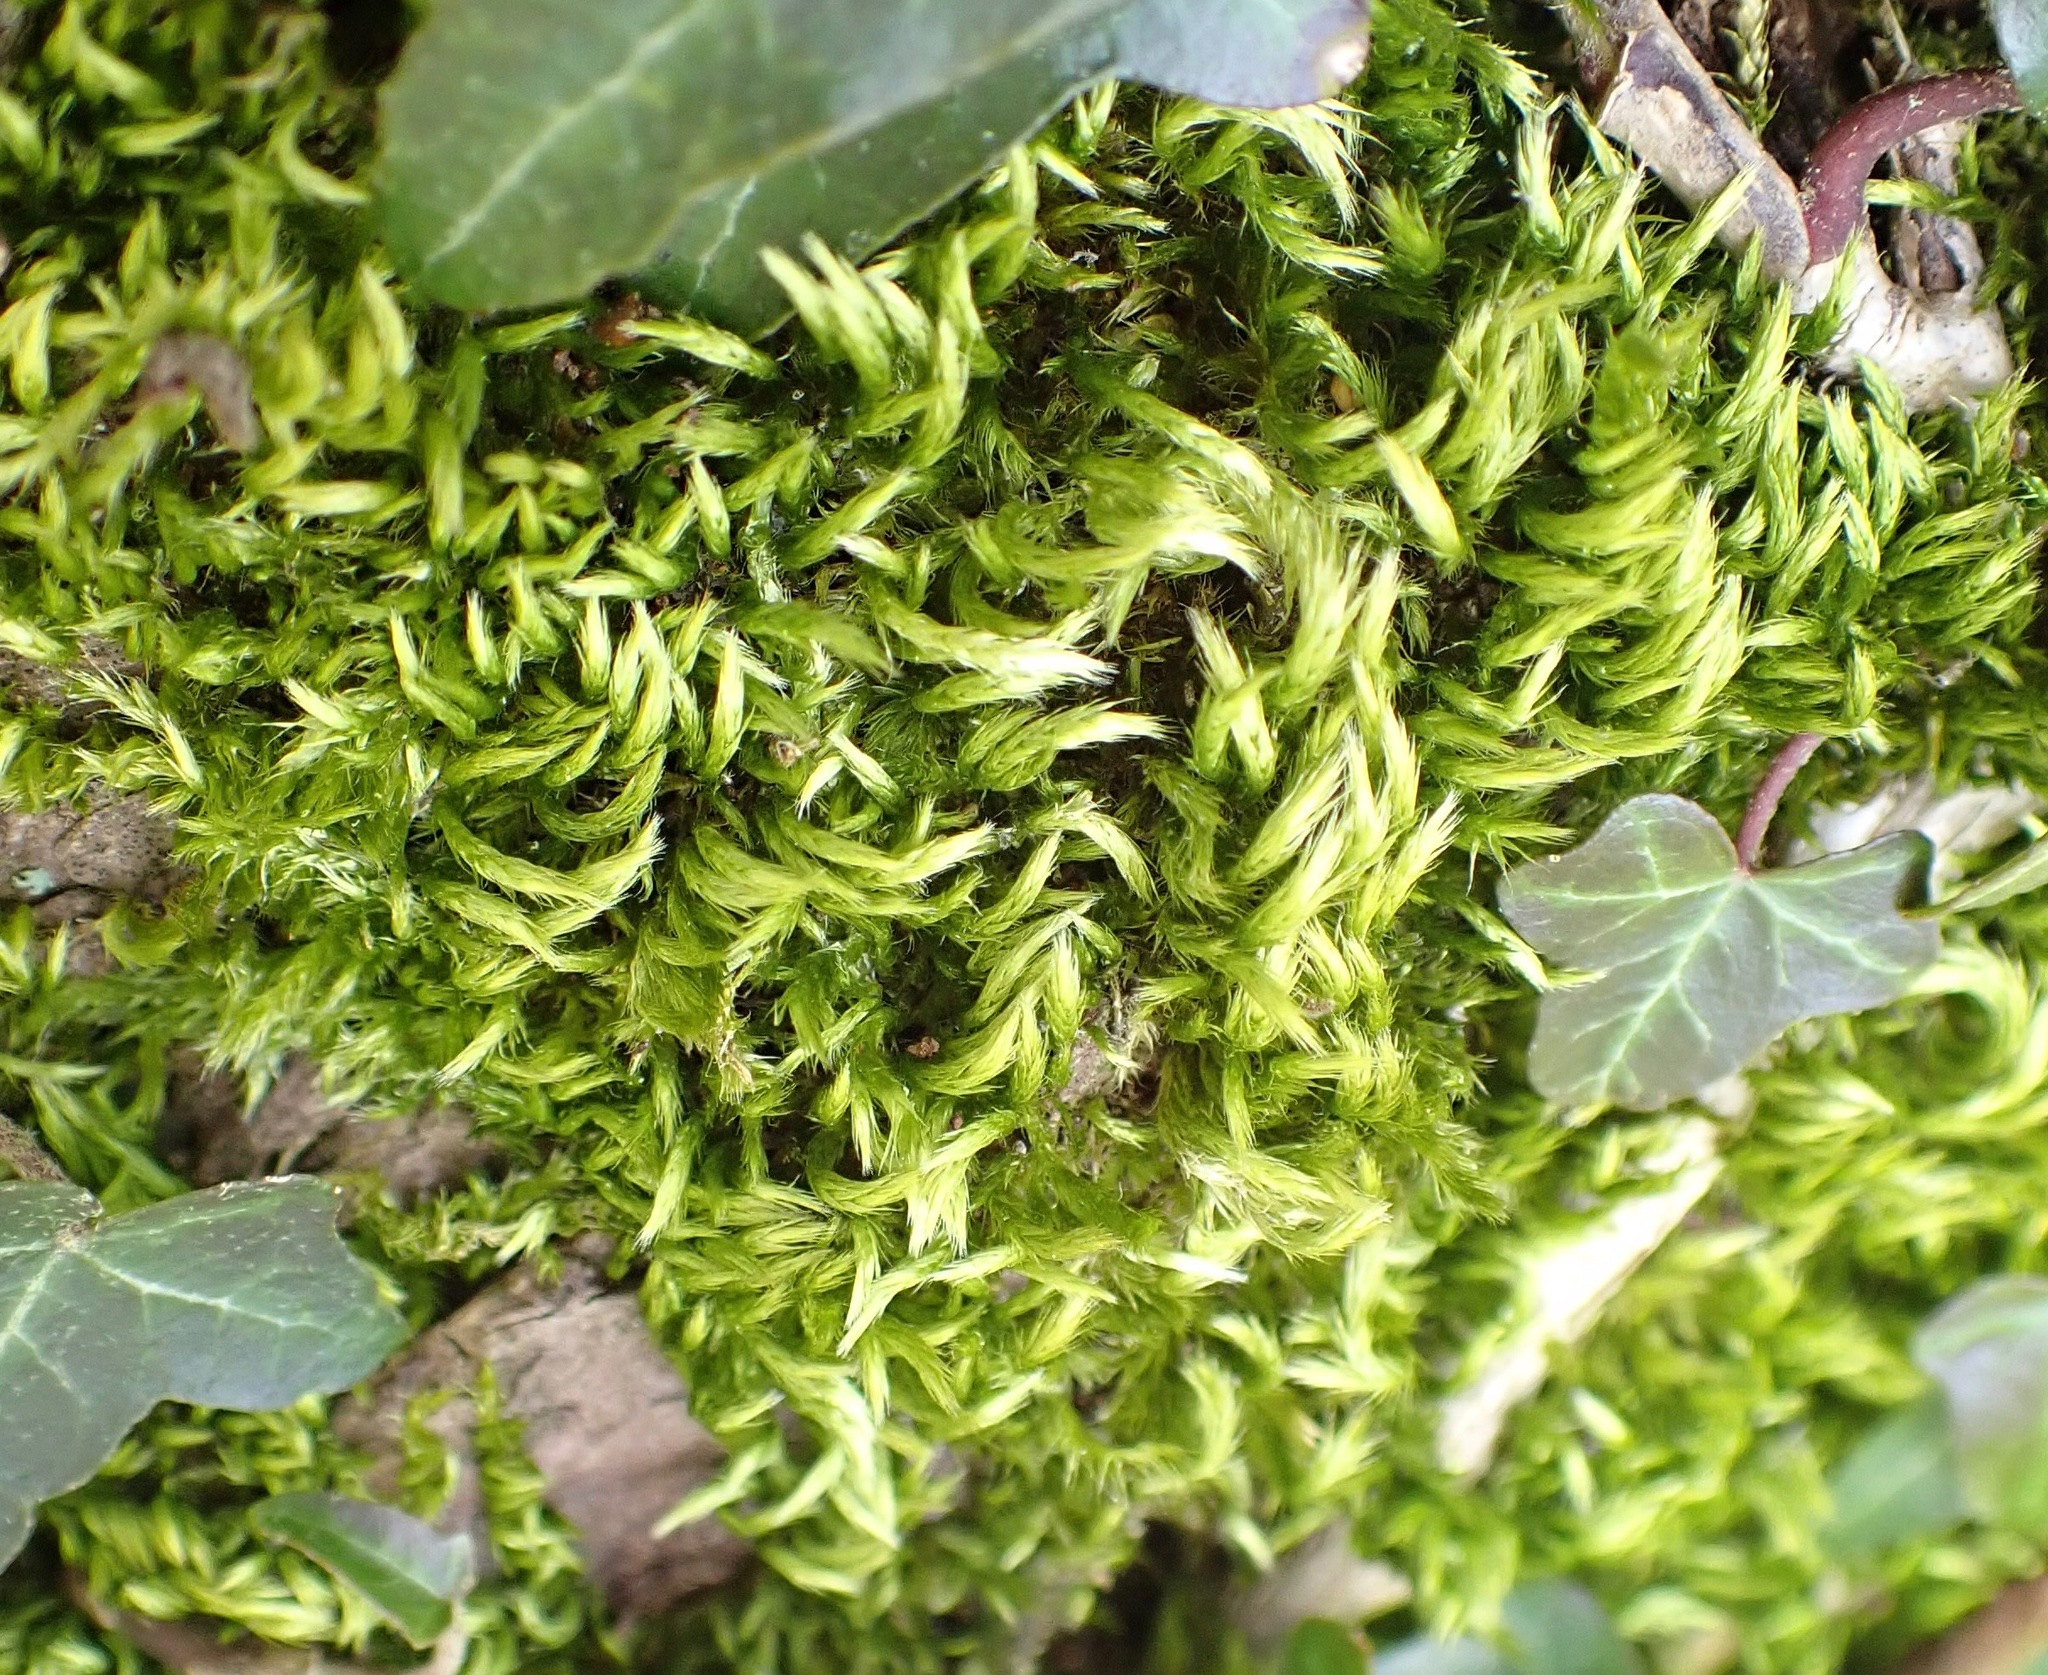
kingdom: Plantae
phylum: Bryophyta
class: Bryopsida
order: Hypnales
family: Brachytheciaceae
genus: Homalothecium
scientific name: Homalothecium sericeum
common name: Silky wall feather-moss
